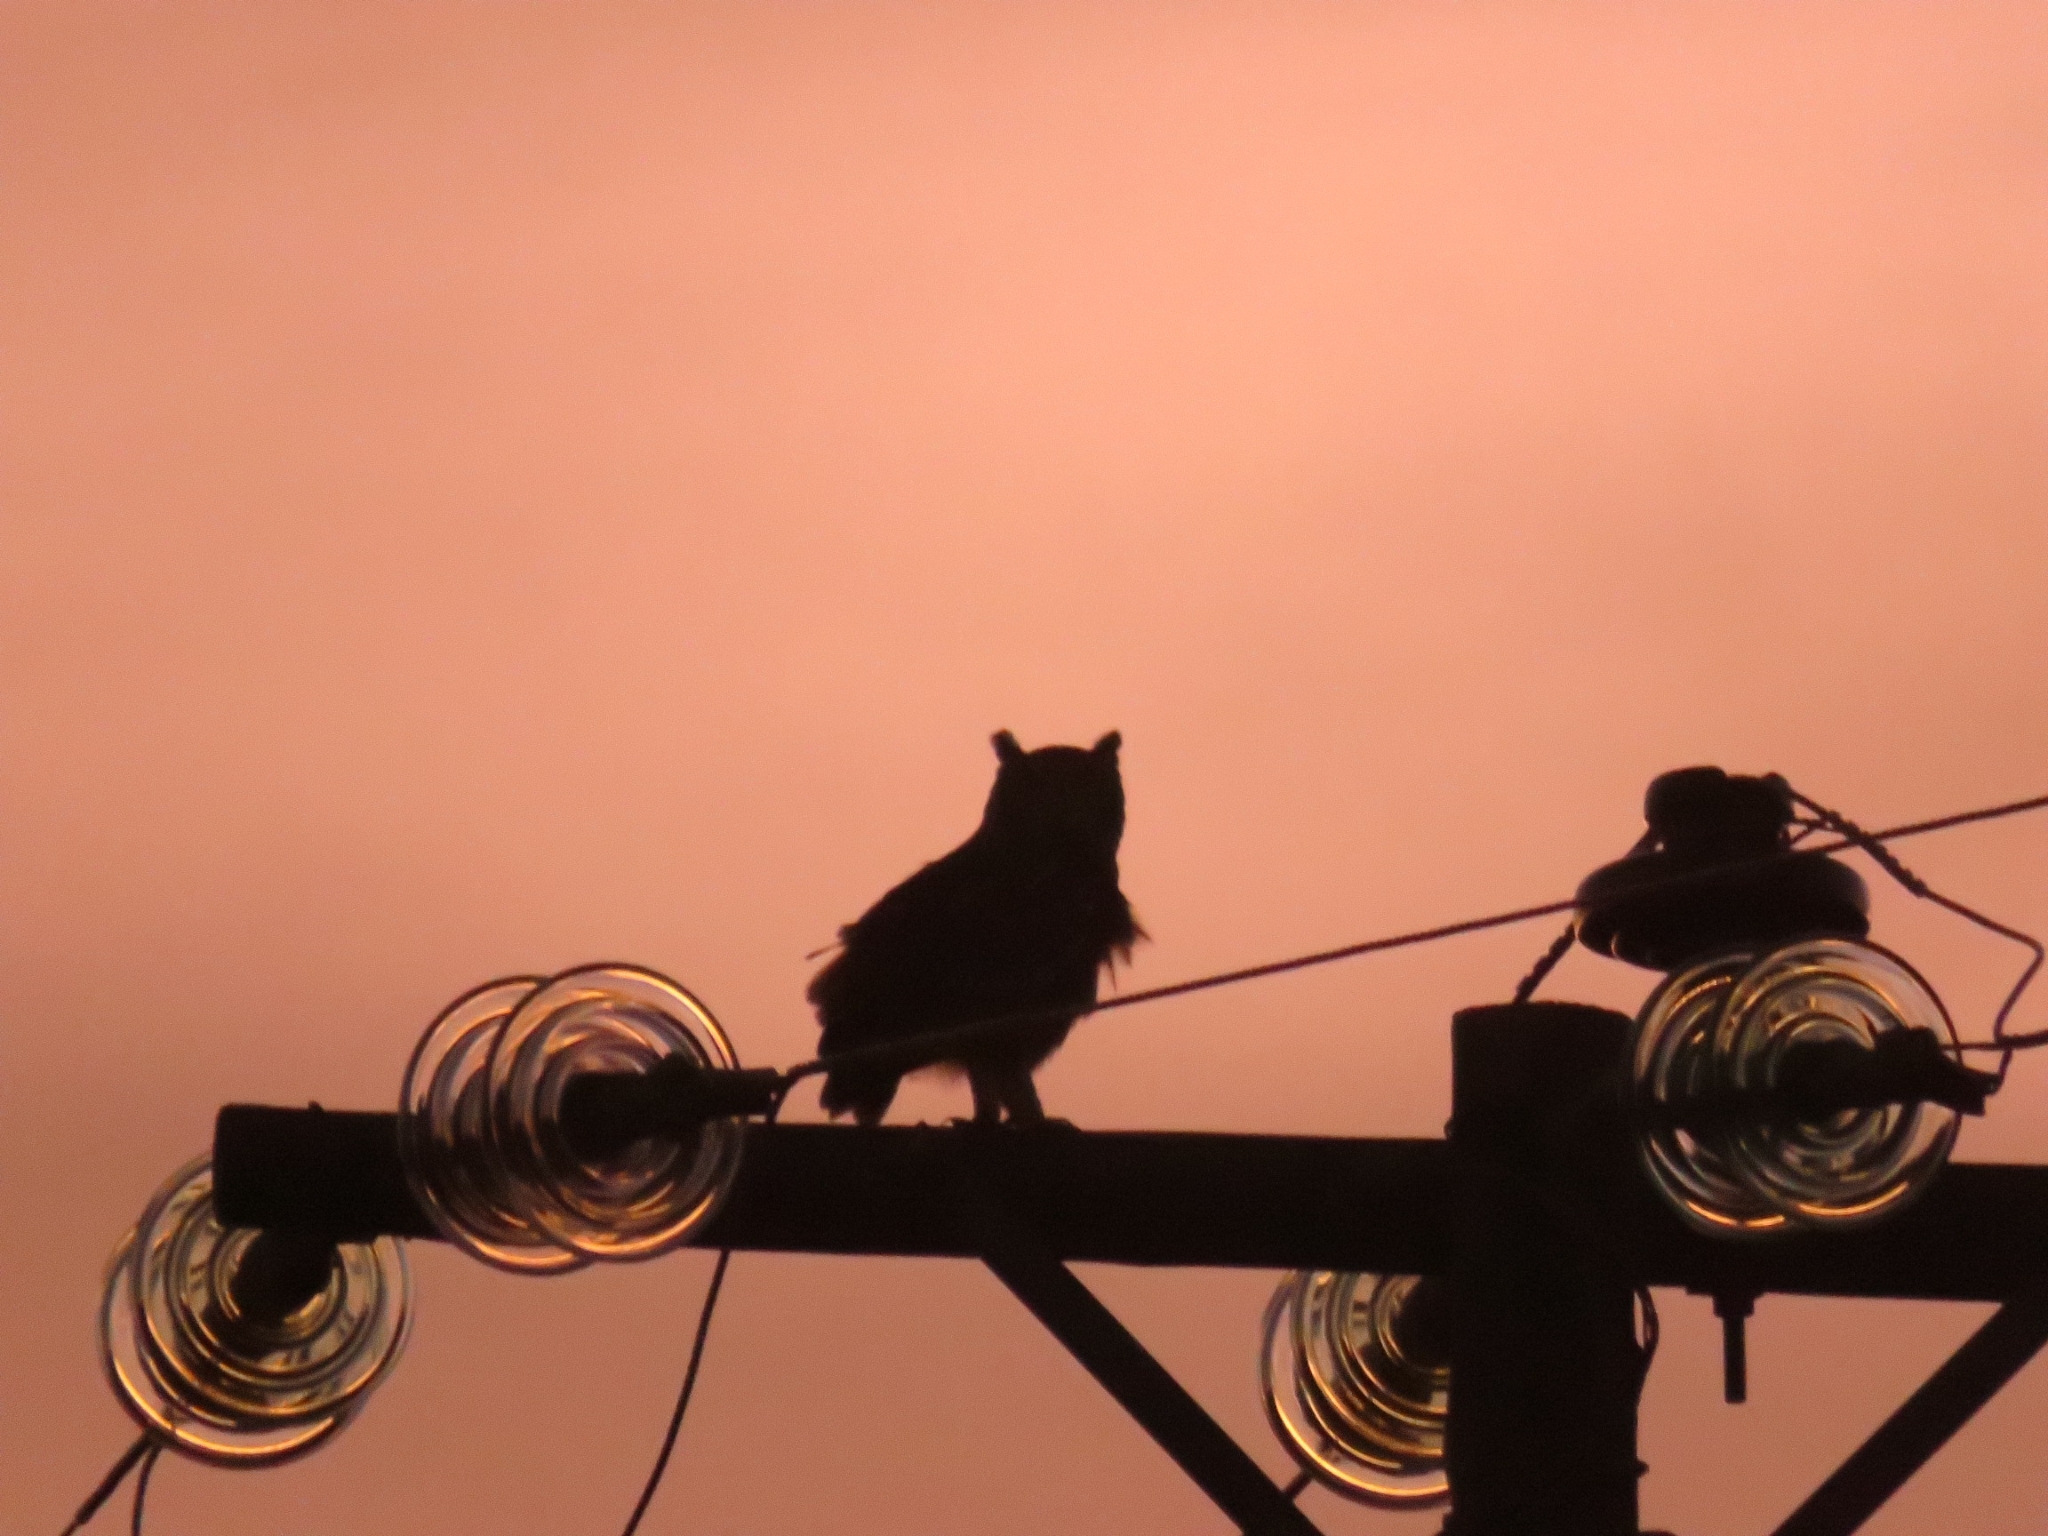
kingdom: Animalia
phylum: Chordata
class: Aves
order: Strigiformes
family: Strigidae
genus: Bubo
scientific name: Bubo africanus
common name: Spotted eagle-owl
